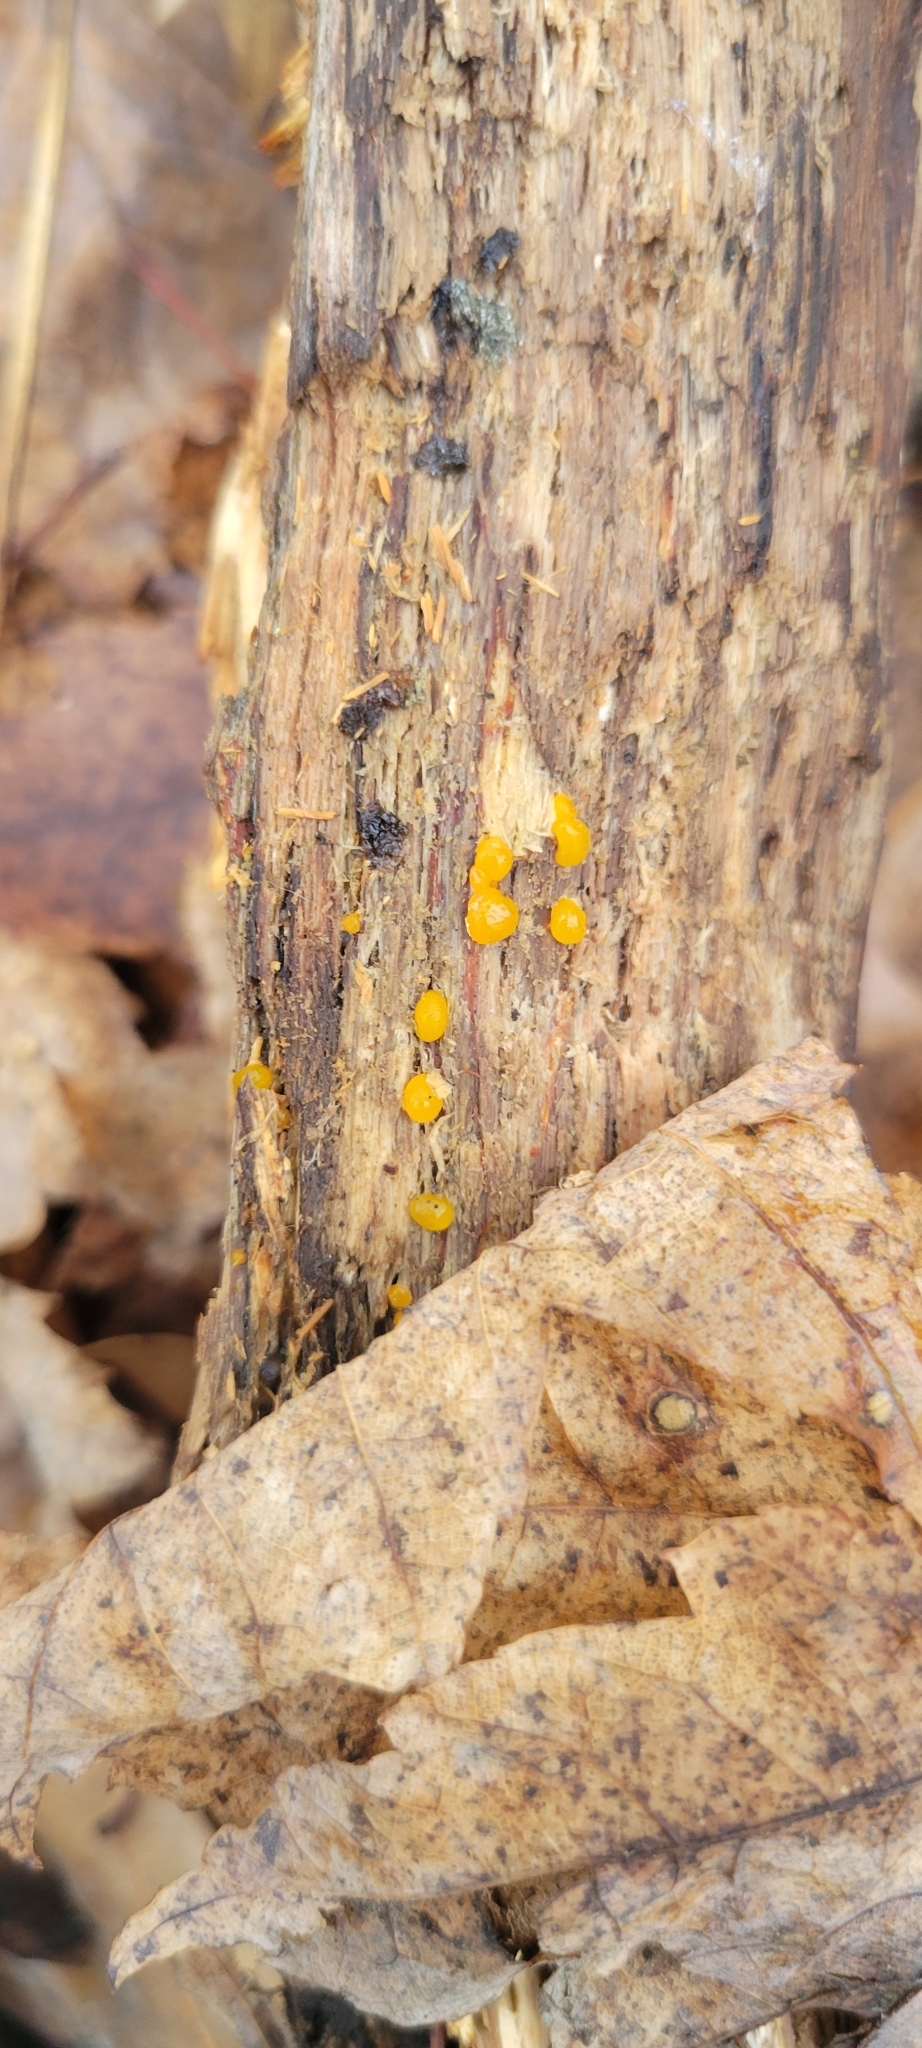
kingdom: Fungi
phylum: Basidiomycota
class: Dacrymycetes
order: Dacrymycetales
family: Dacrymycetaceae
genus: Dacrymyces
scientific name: Dacrymyces stillatus
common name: Common jelly spot
